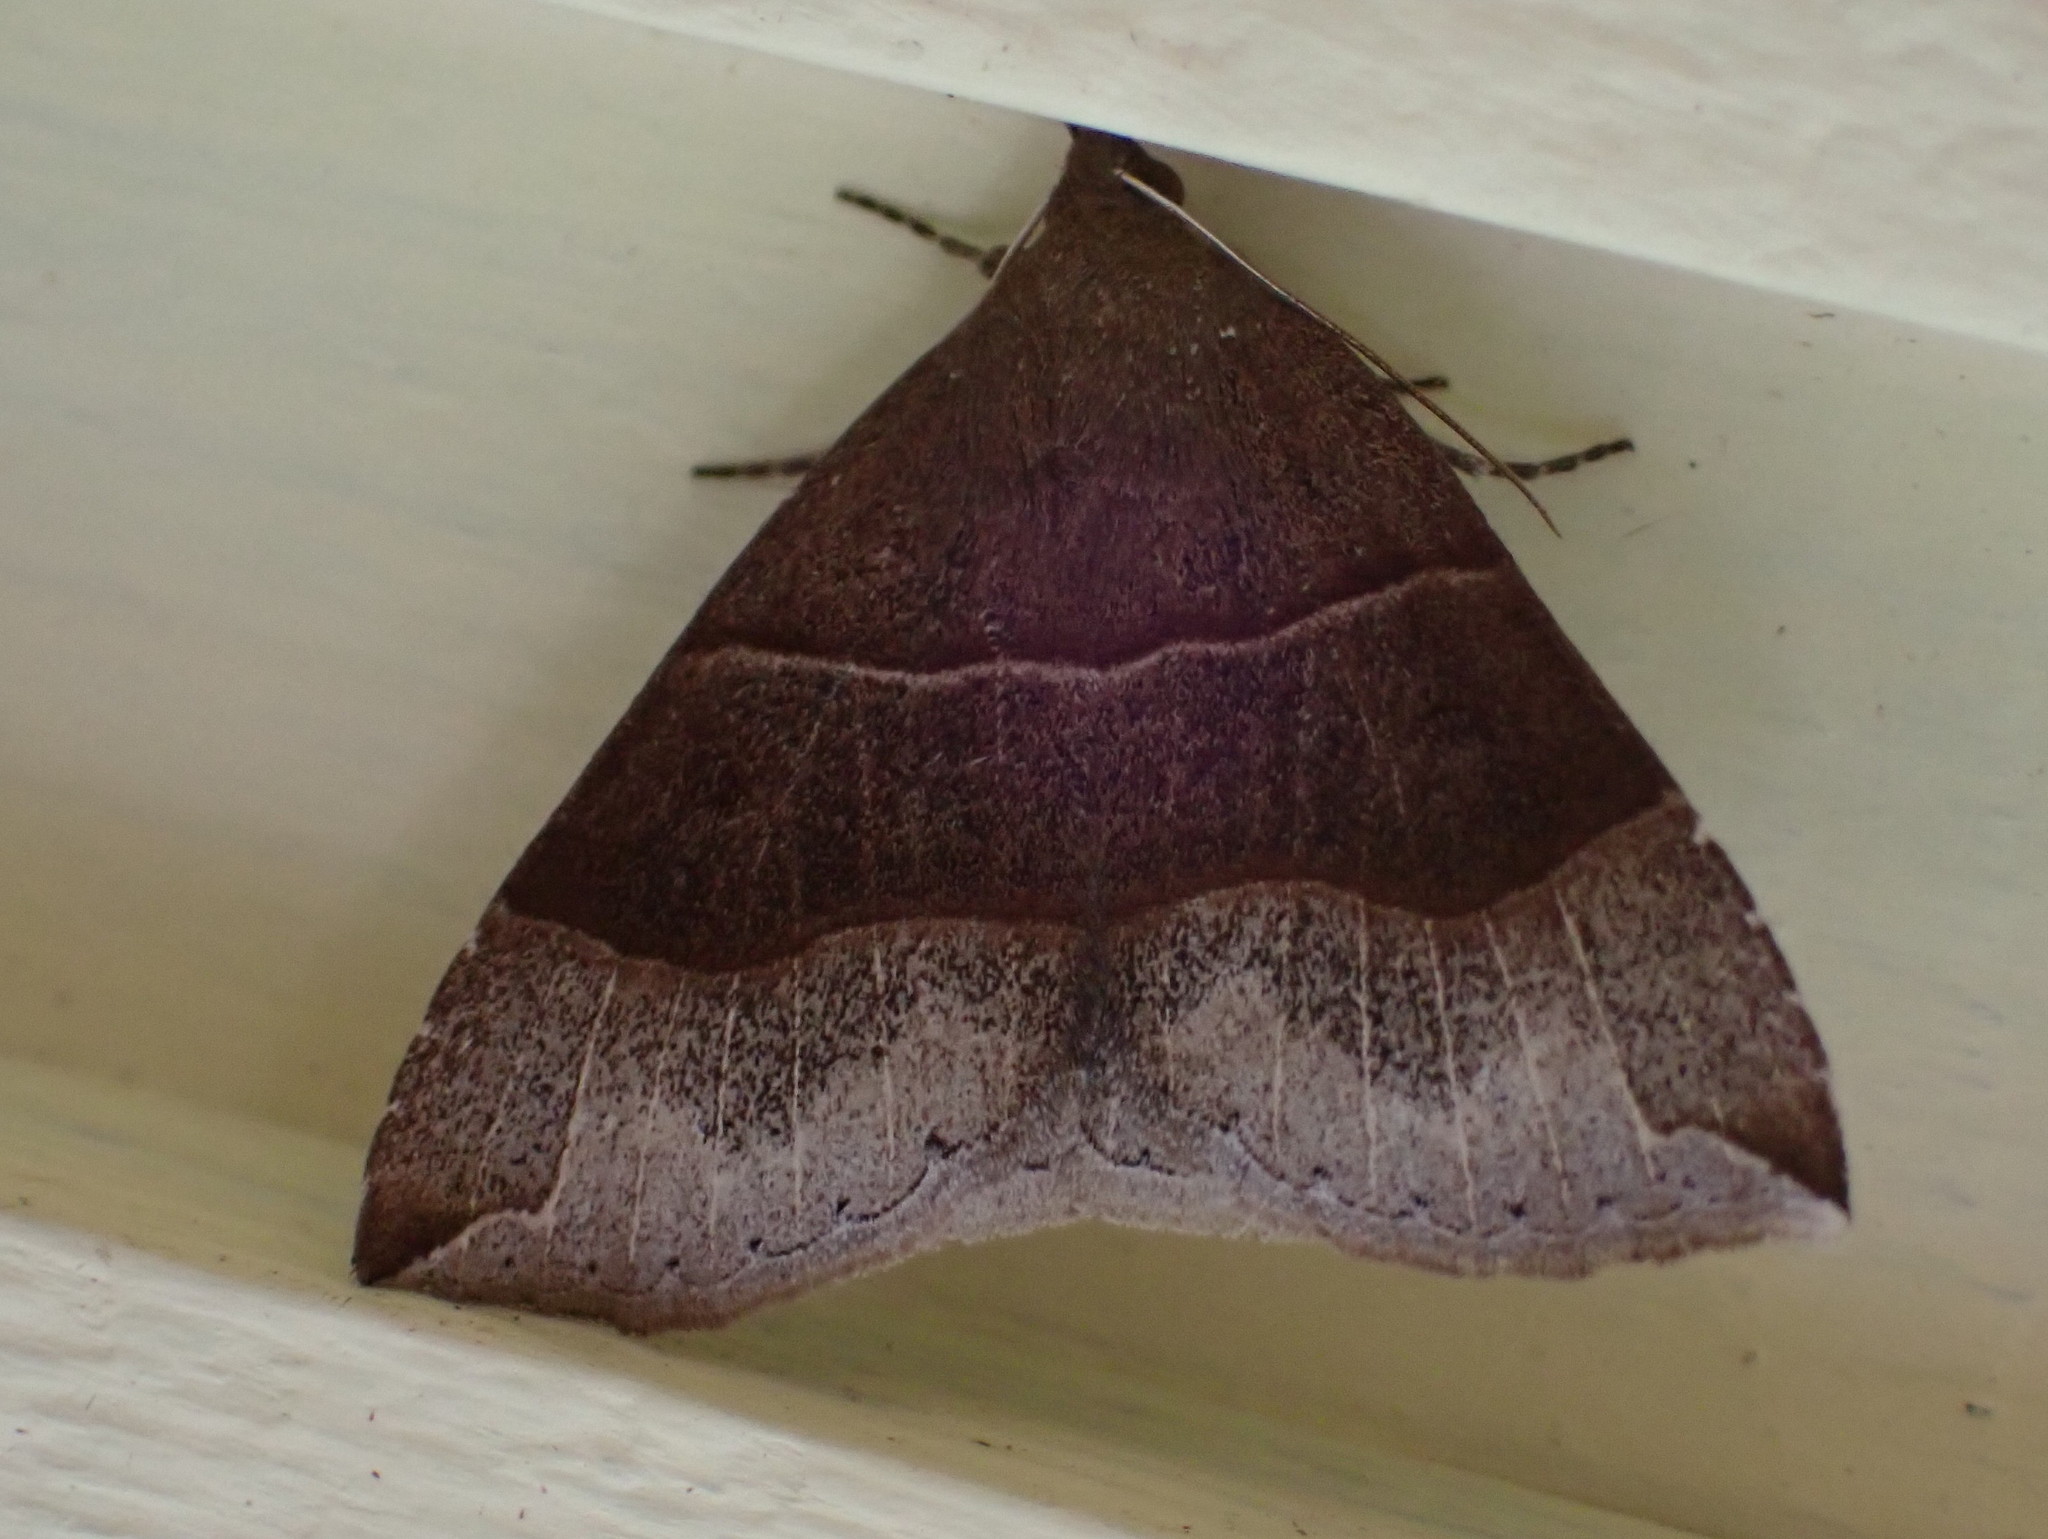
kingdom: Animalia
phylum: Arthropoda
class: Insecta
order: Lepidoptera
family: Erebidae
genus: Parallelia
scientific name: Parallelia bistriaris
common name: Maple looper moth
